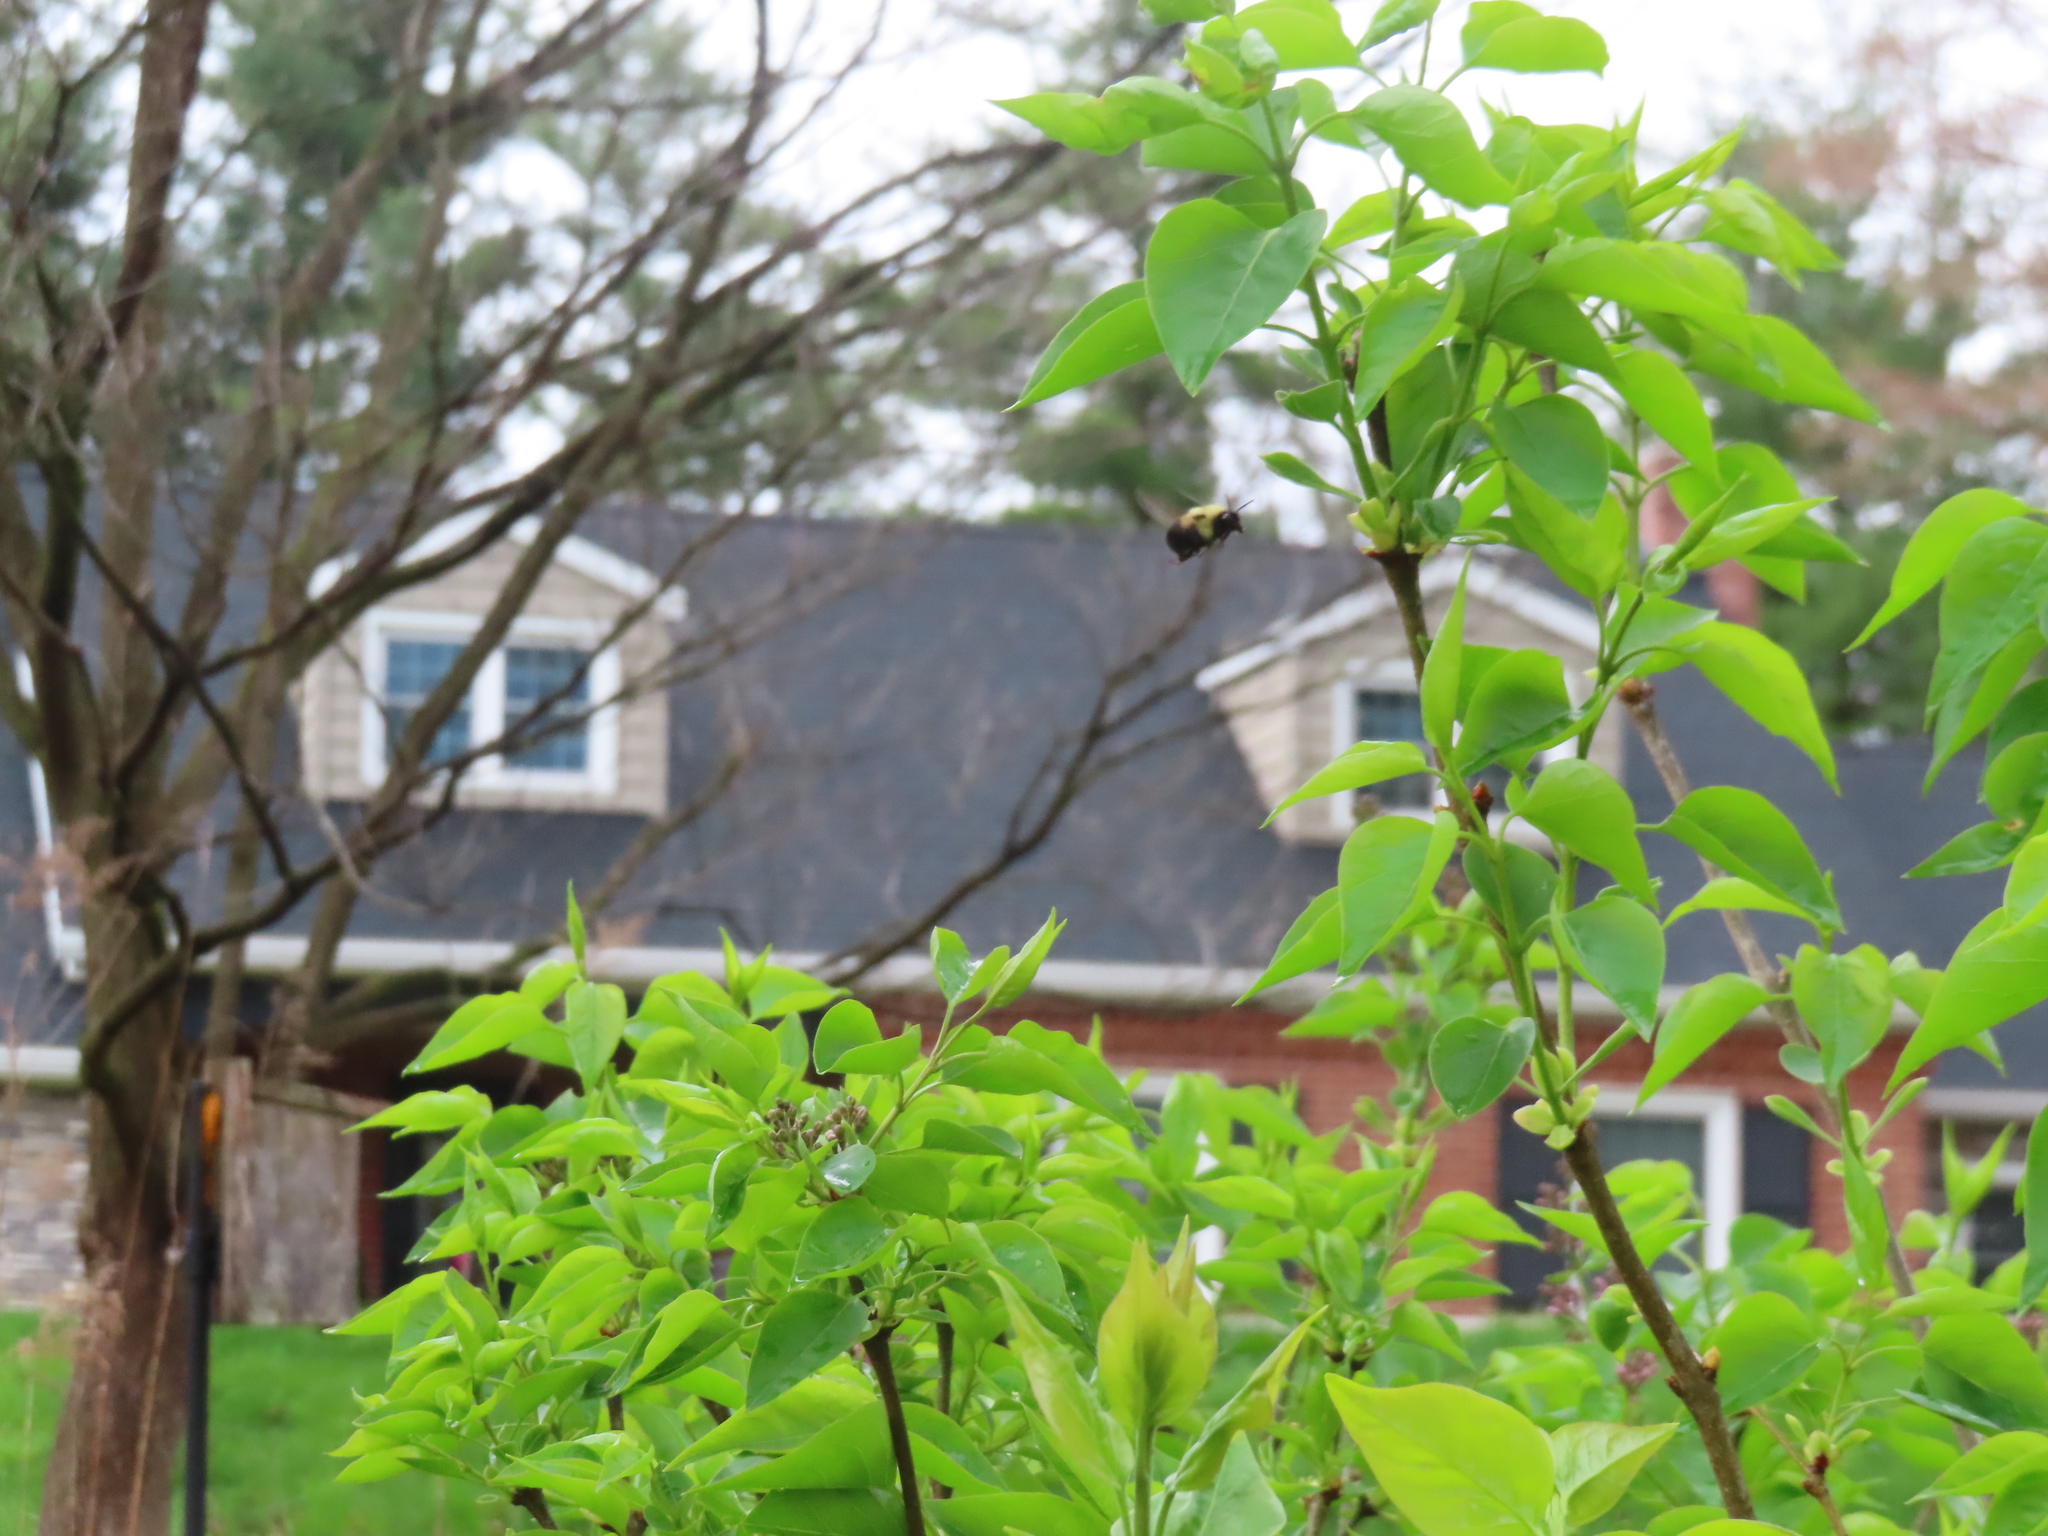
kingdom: Animalia
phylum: Arthropoda
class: Insecta
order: Hymenoptera
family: Apidae
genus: Bombus
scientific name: Bombus griseocollis
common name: Brown-belted bumble bee
